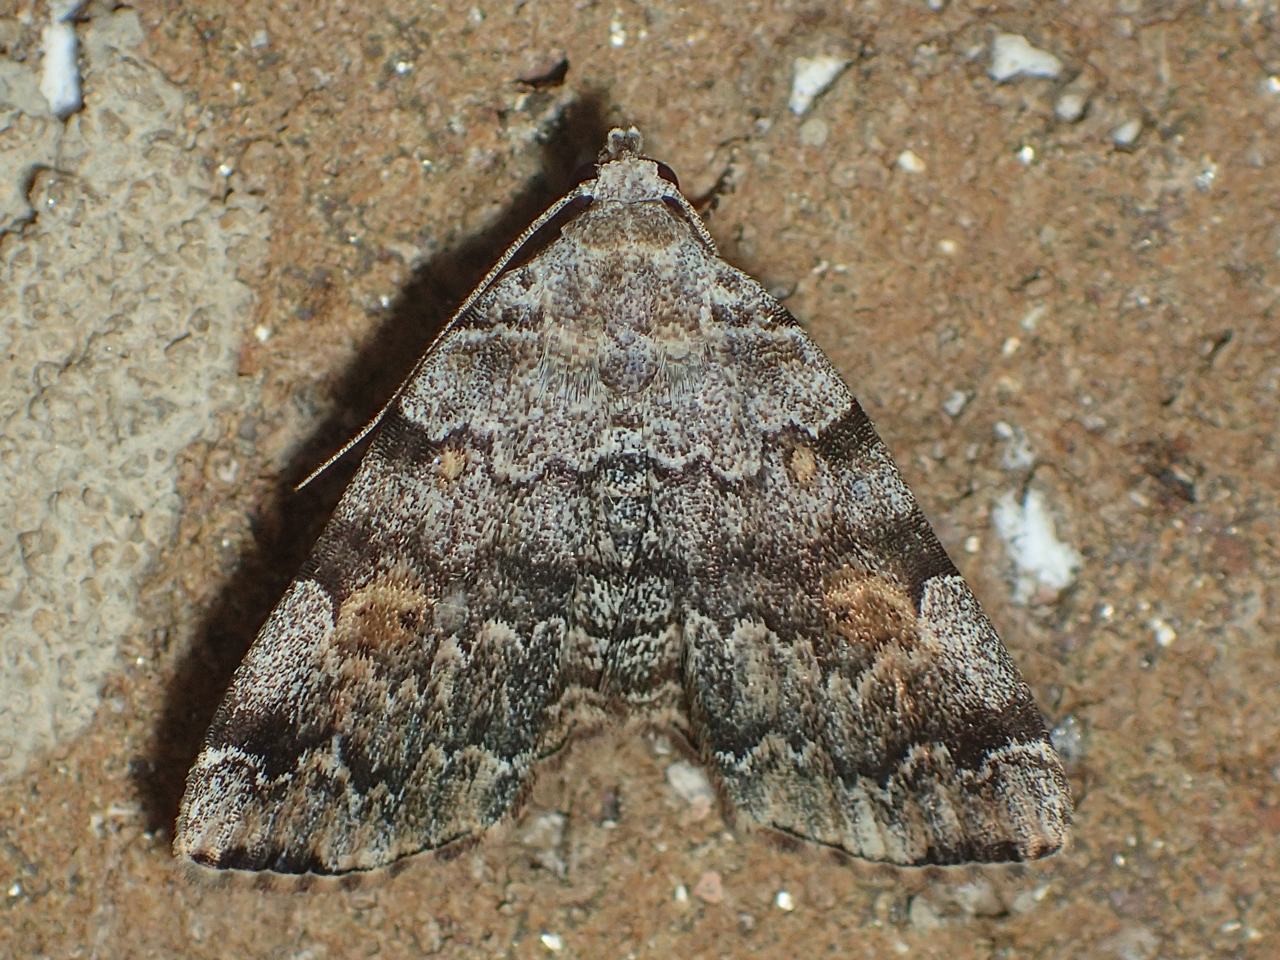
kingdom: Animalia
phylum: Arthropoda
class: Insecta
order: Lepidoptera
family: Erebidae
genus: Idia
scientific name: Idia americalis
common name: American idia moth
